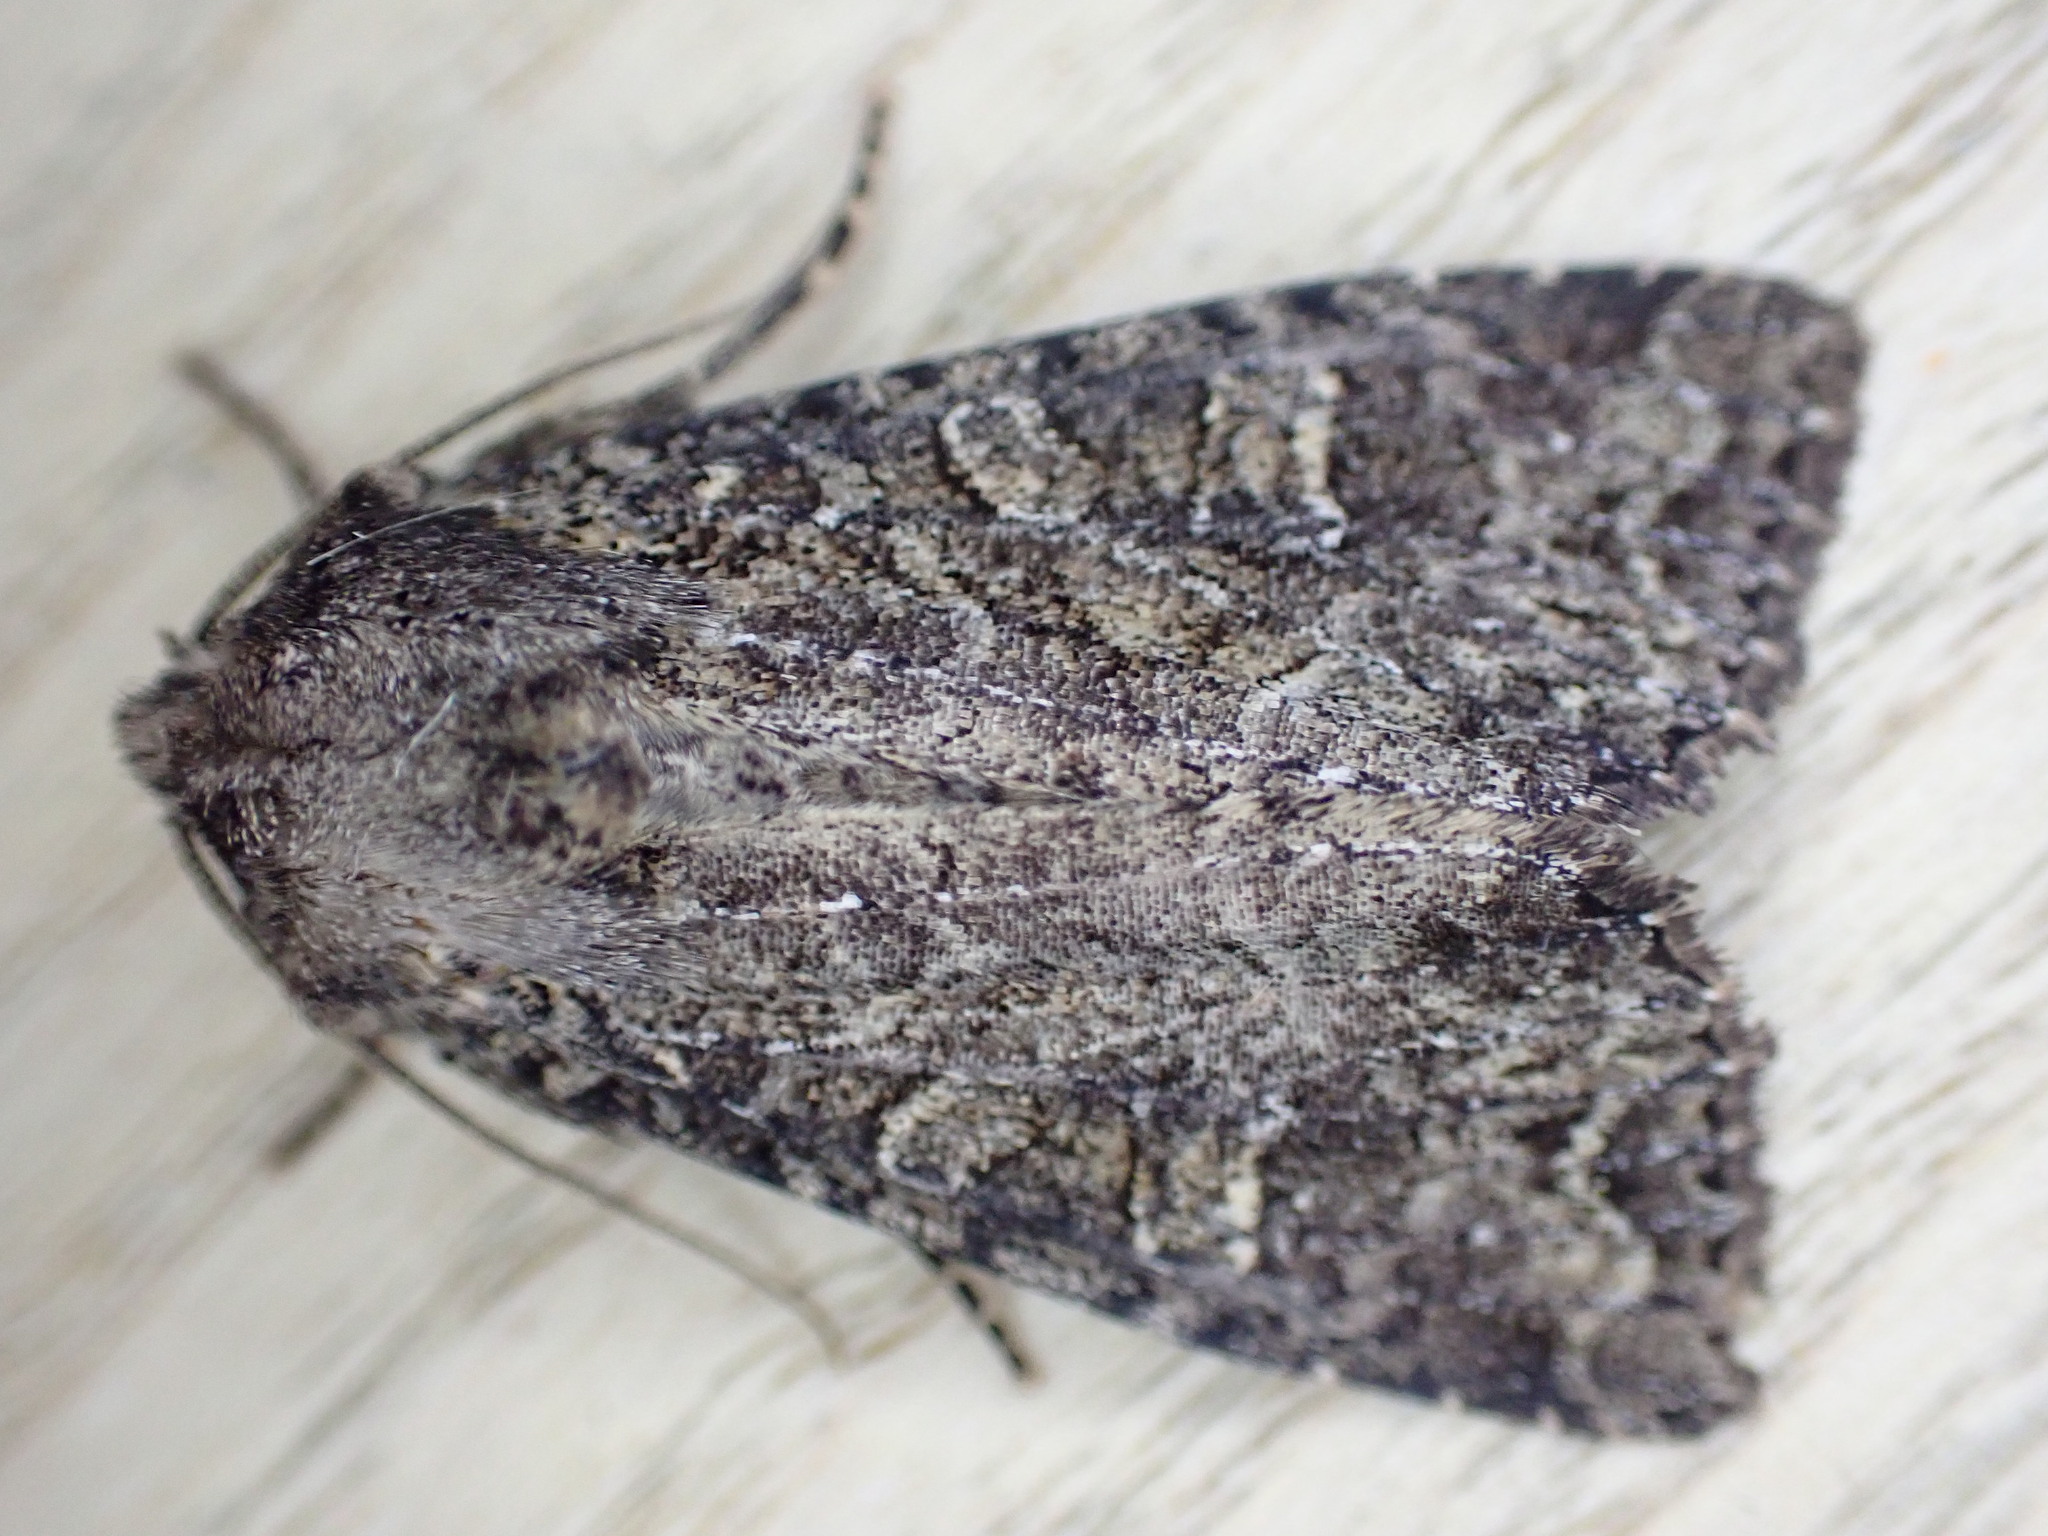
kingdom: Animalia
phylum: Arthropoda
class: Insecta
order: Lepidoptera
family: Noctuidae
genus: Apamea
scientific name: Apamea remissa
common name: Dusky brocade
